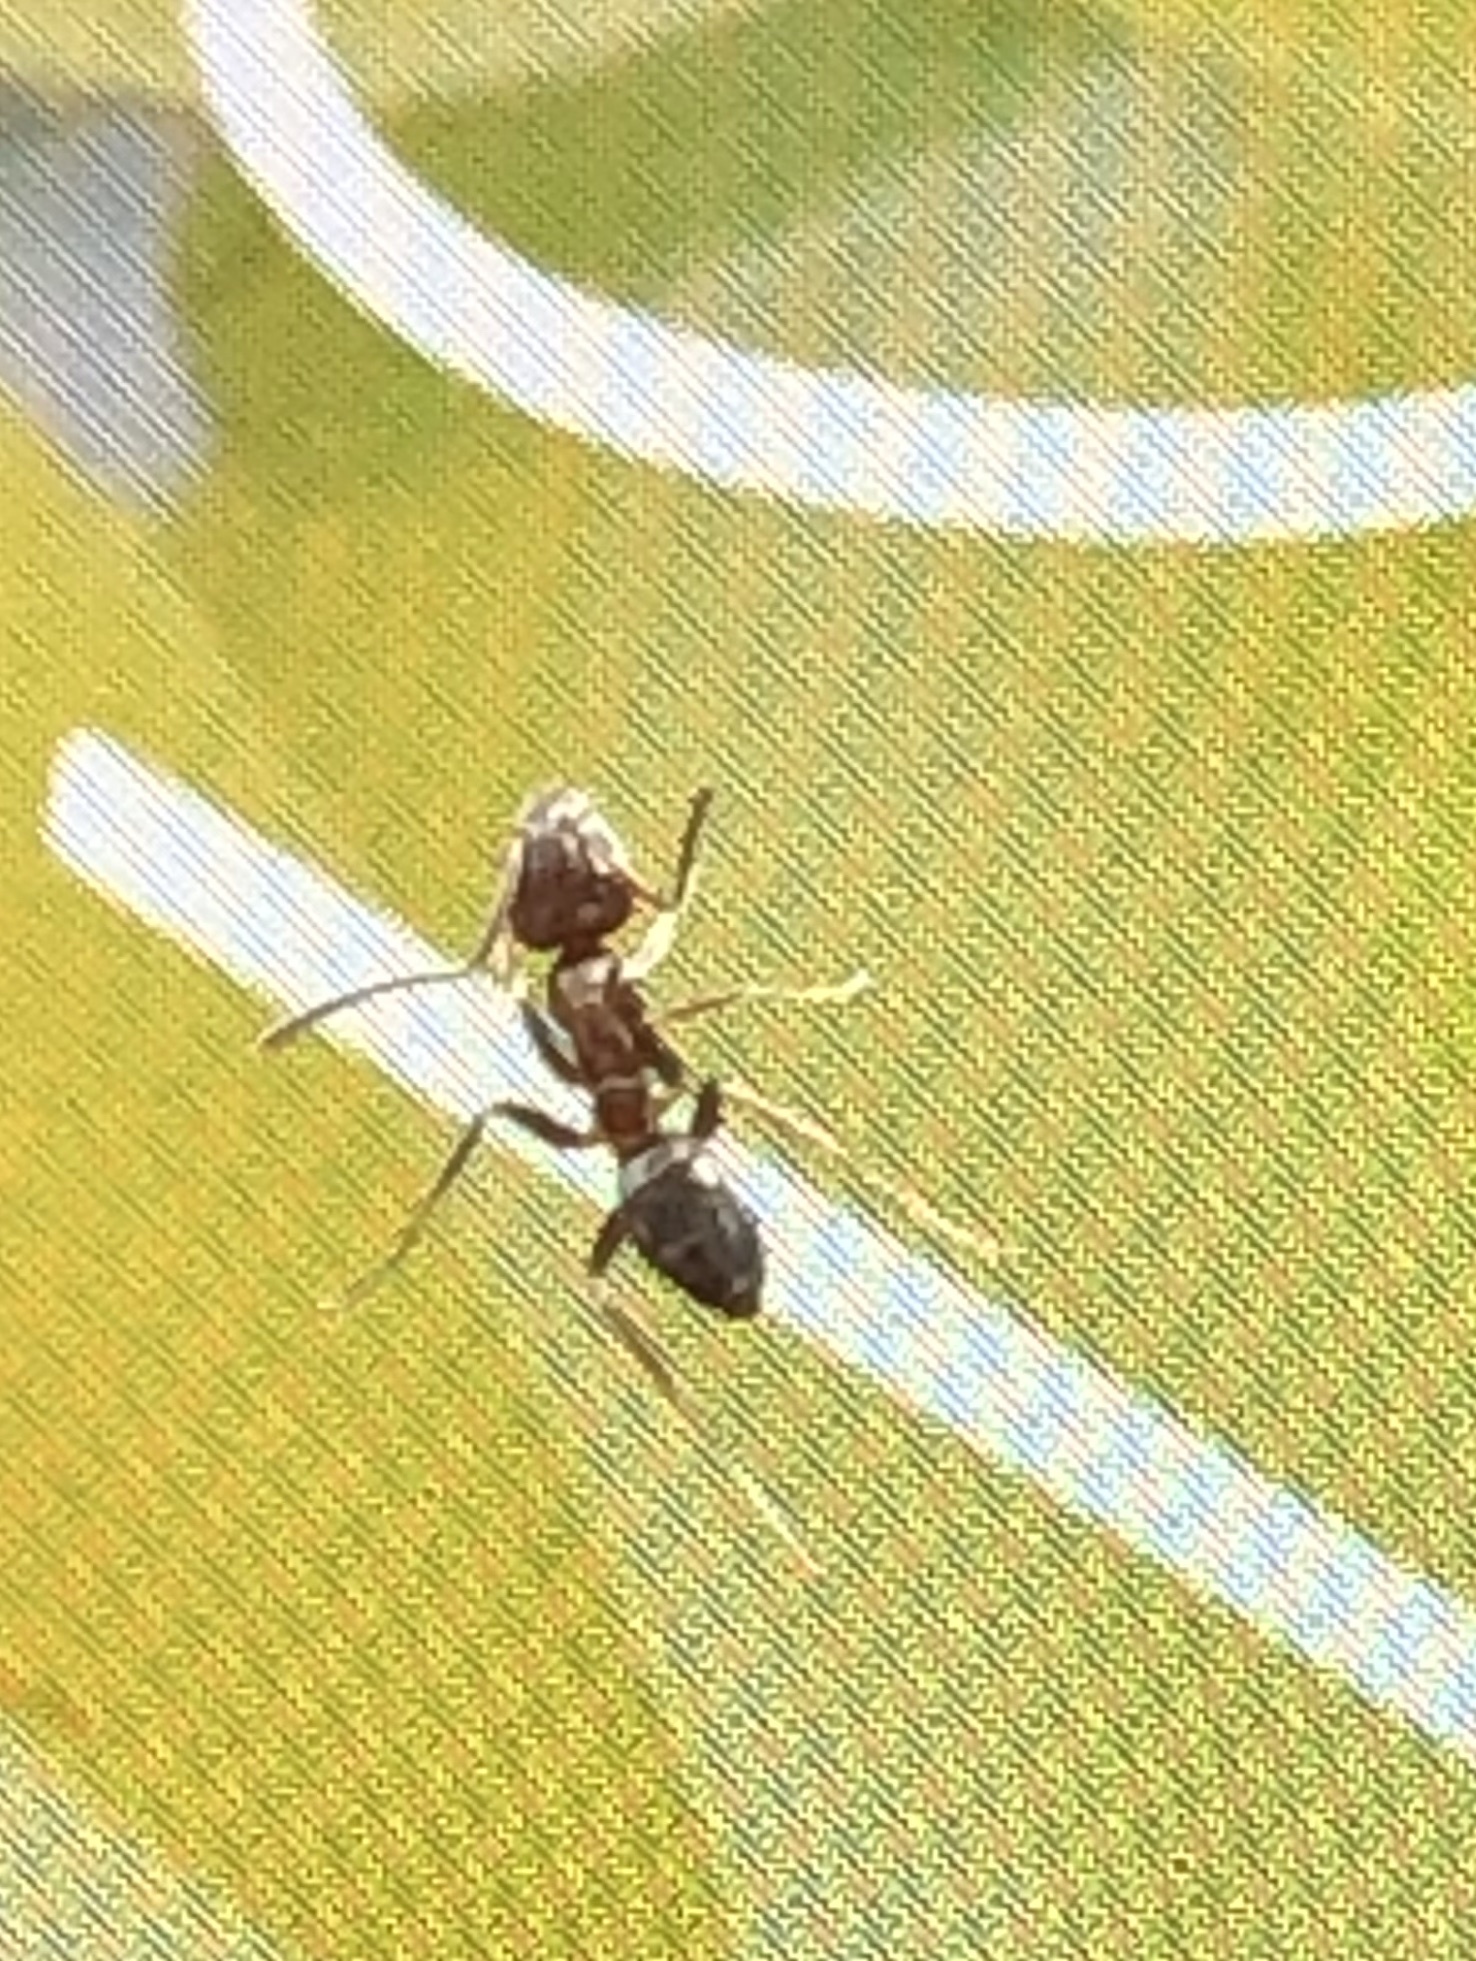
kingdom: Animalia
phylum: Arthropoda
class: Insecta
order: Hymenoptera
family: Formicidae
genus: Linepithema
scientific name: Linepithema humile
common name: Argentine ant
